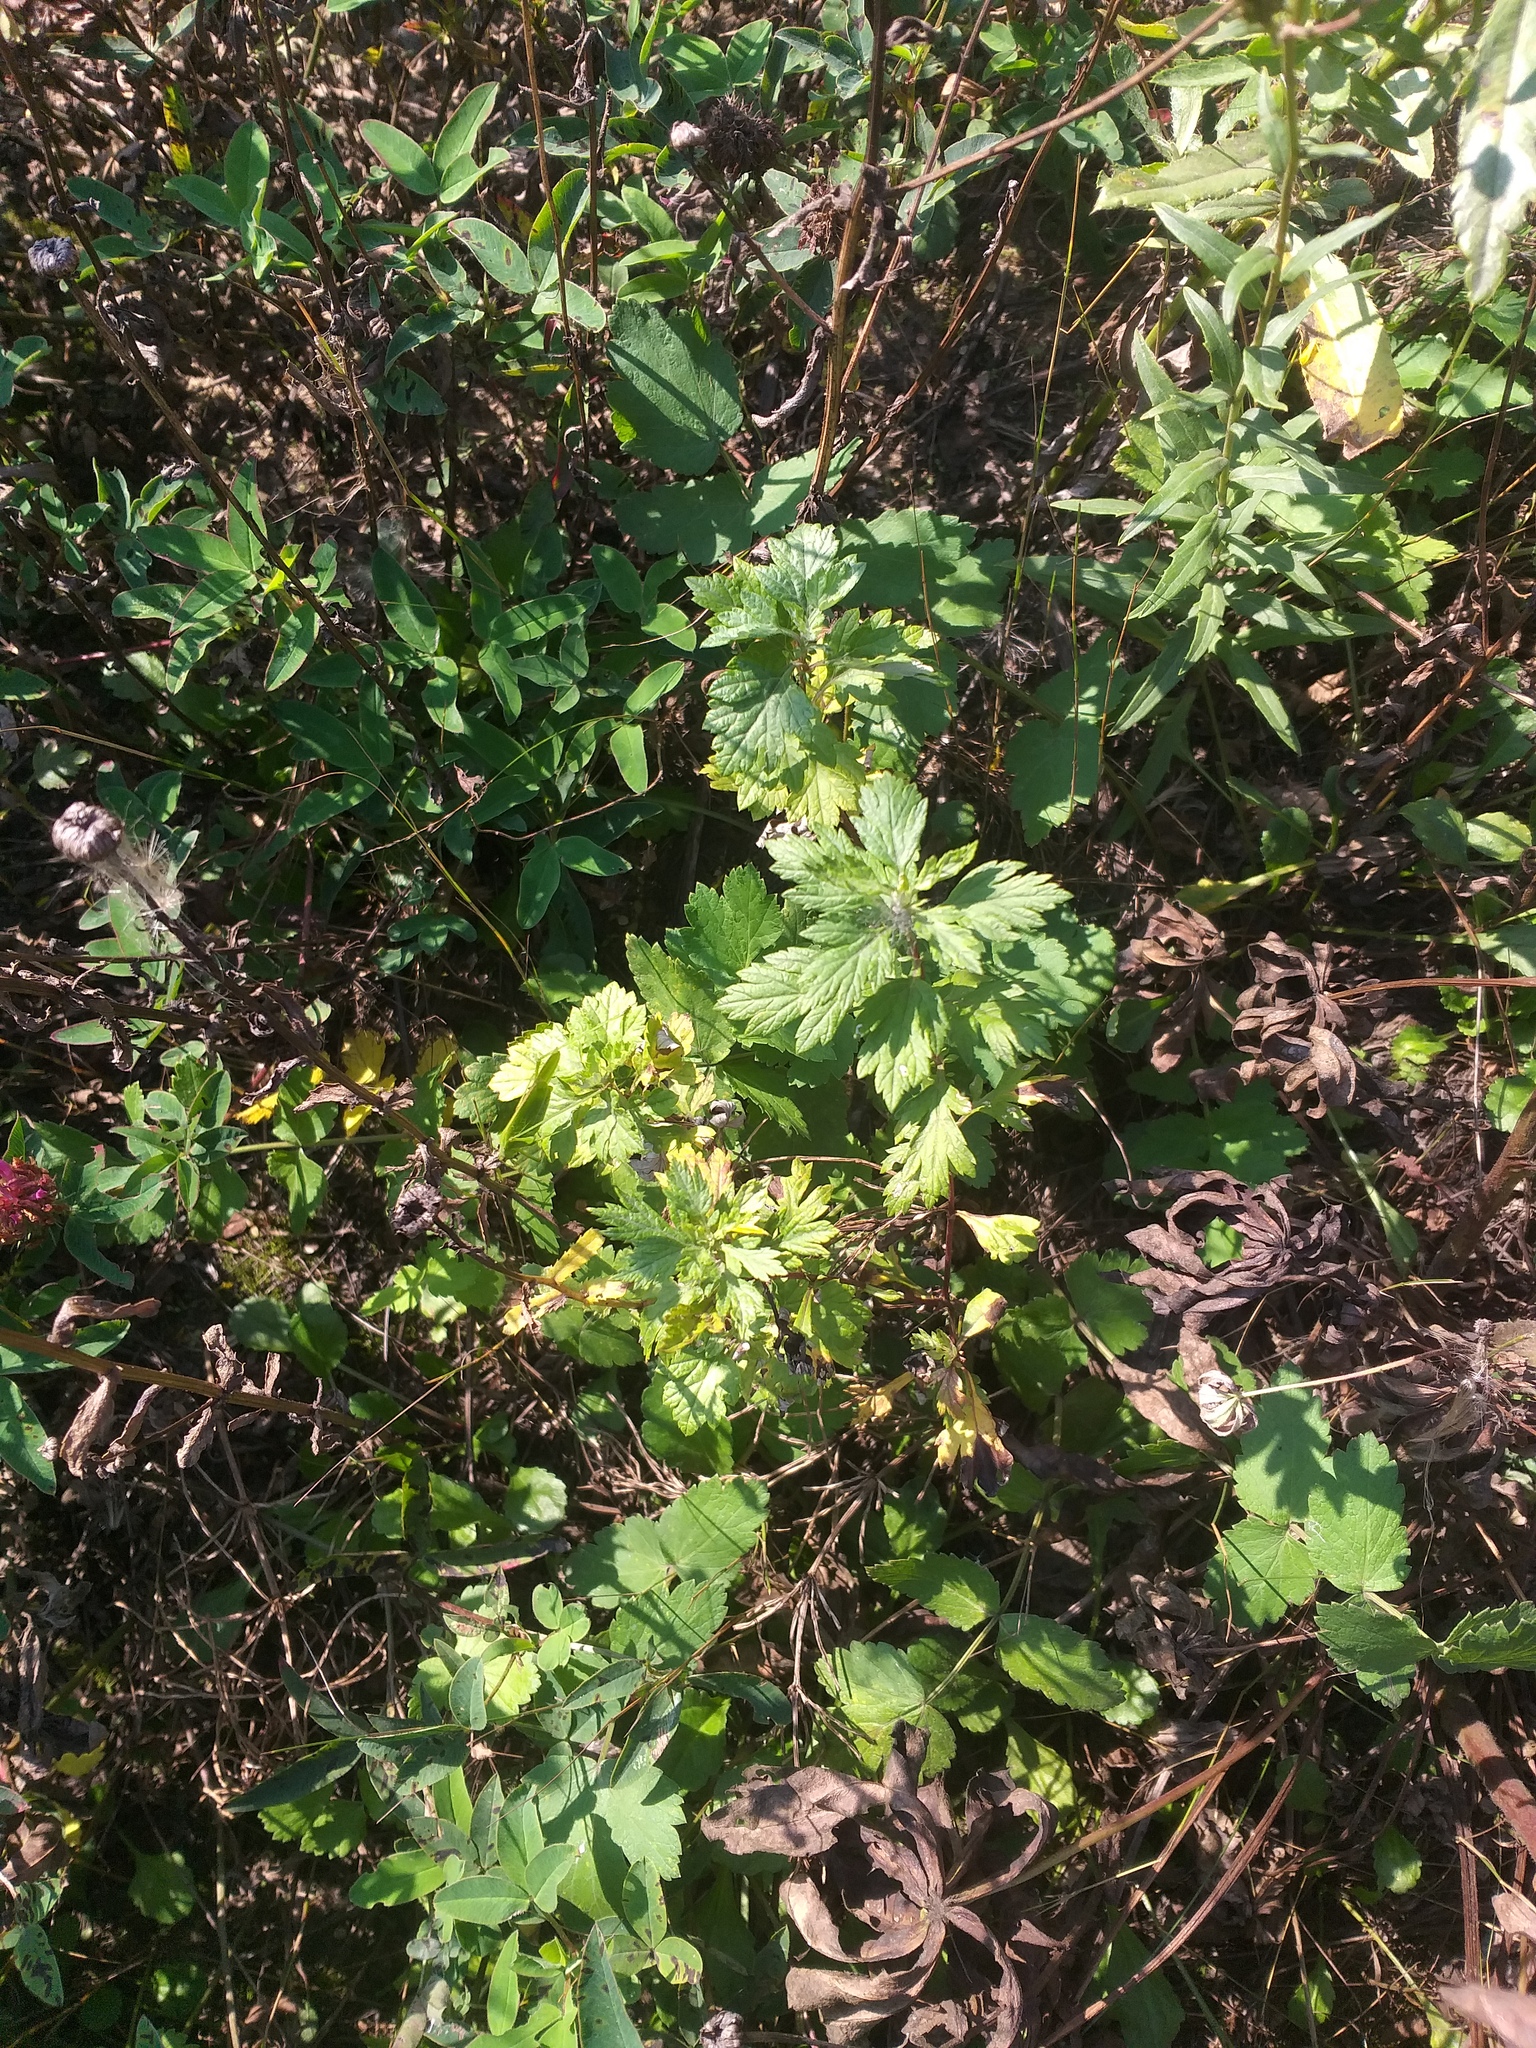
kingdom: Plantae
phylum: Tracheophyta
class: Magnoliopsida
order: Asterales
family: Asteraceae
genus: Artemisia
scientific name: Artemisia vulgaris
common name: Mugwort
